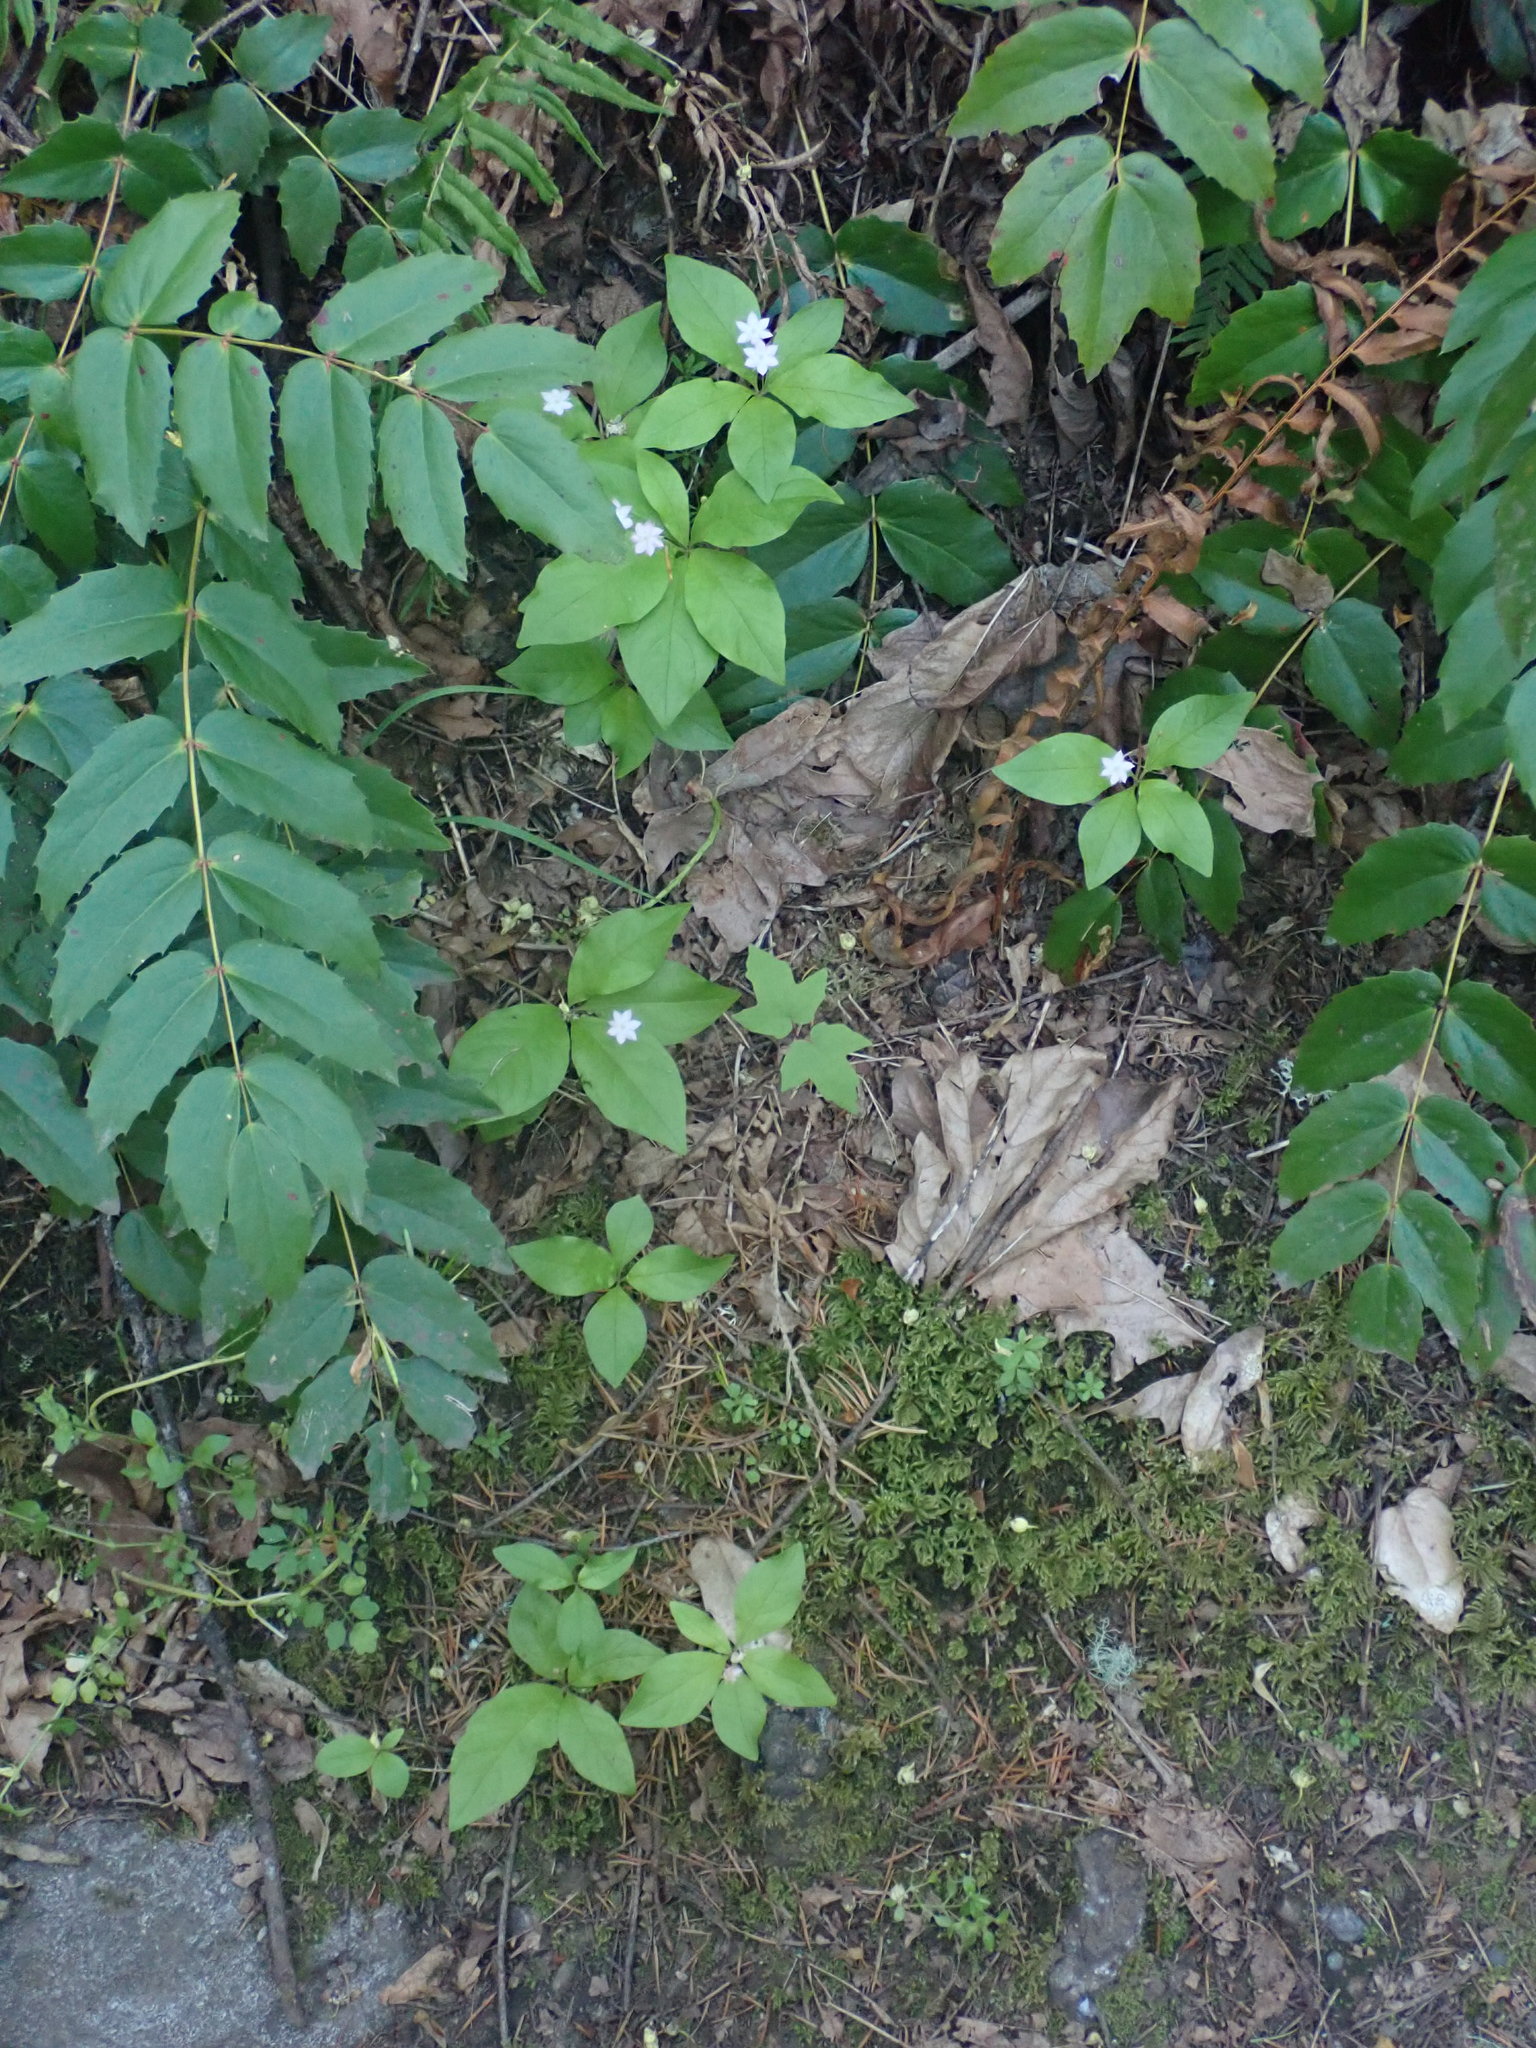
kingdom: Plantae
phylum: Tracheophyta
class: Magnoliopsida
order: Ericales
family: Primulaceae
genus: Lysimachia
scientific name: Lysimachia latifolia
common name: Pacific starflower
